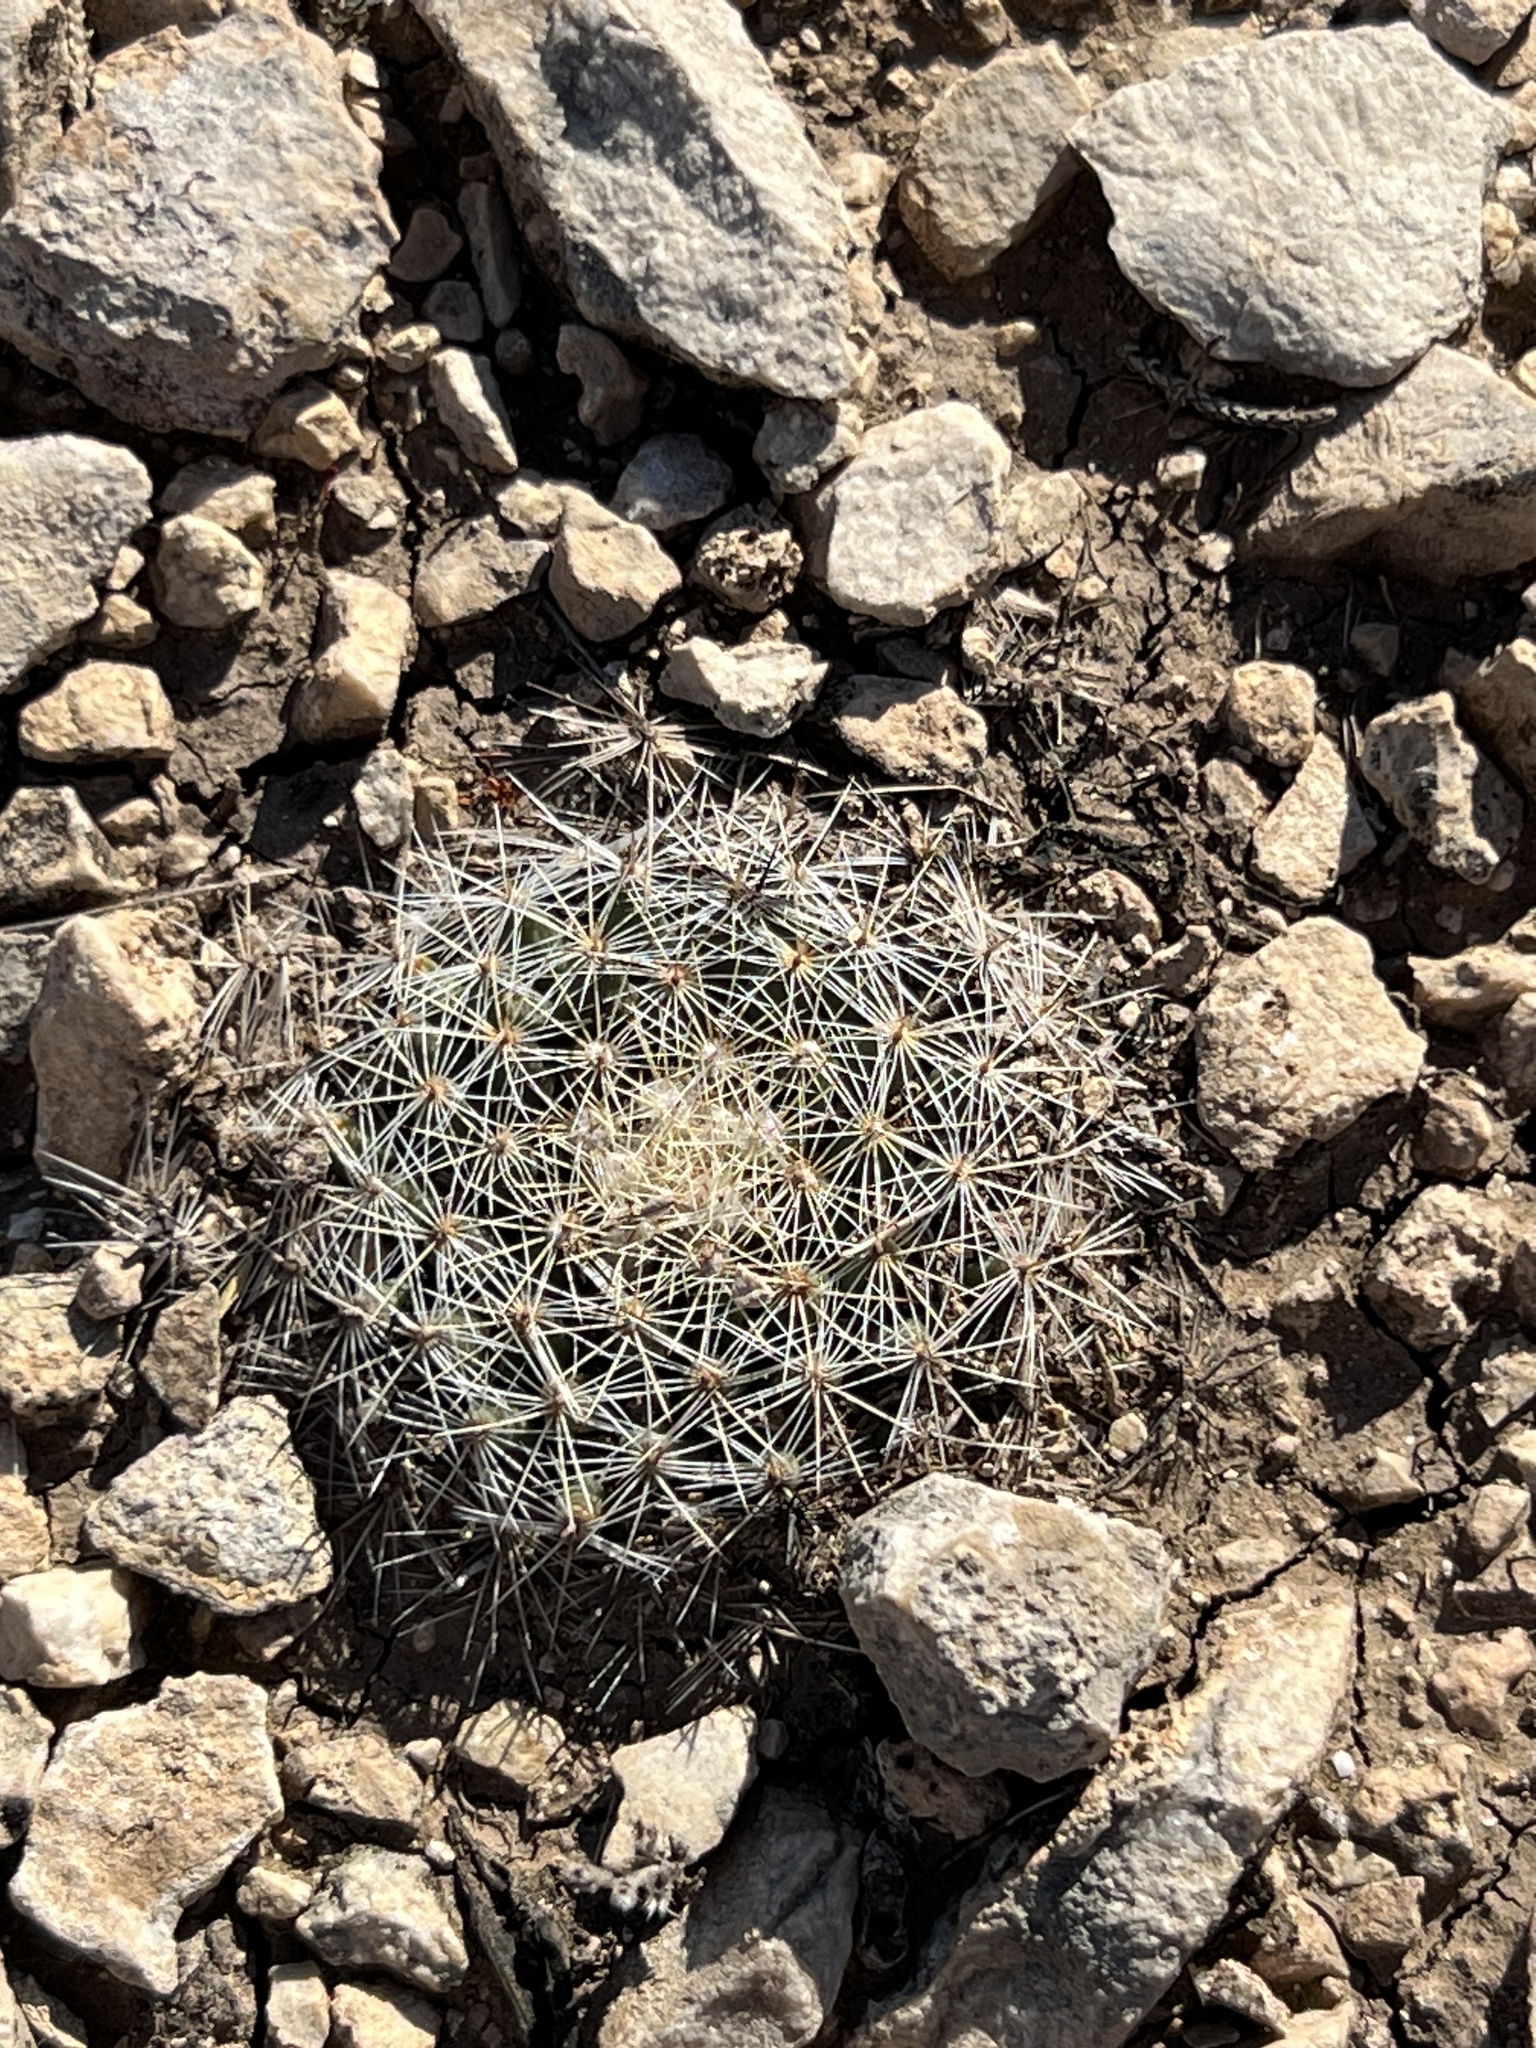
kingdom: Plantae
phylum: Tracheophyta
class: Magnoliopsida
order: Caryophyllales
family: Cactaceae
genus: Mammillaria
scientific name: Mammillaria heyderi
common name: Little nipple cactus
